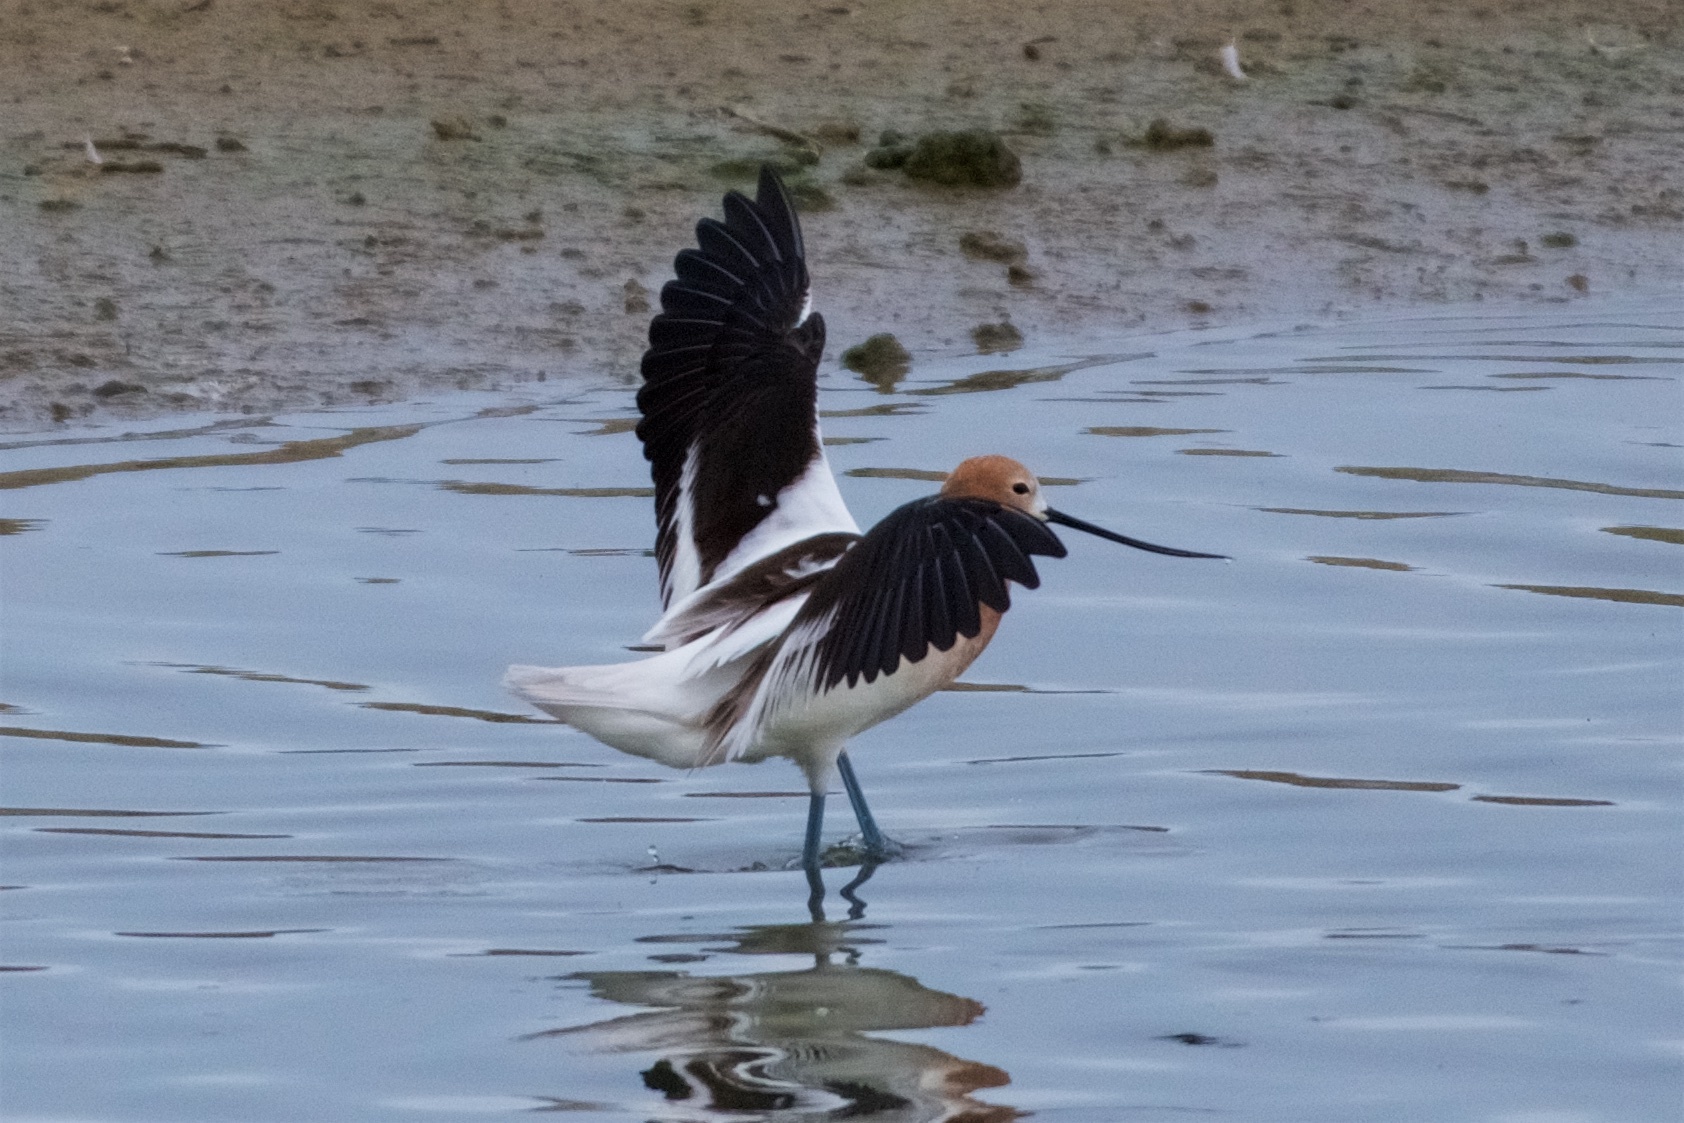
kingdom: Animalia
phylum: Chordata
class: Aves
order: Charadriiformes
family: Recurvirostridae
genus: Recurvirostra
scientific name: Recurvirostra americana
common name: American avocet
